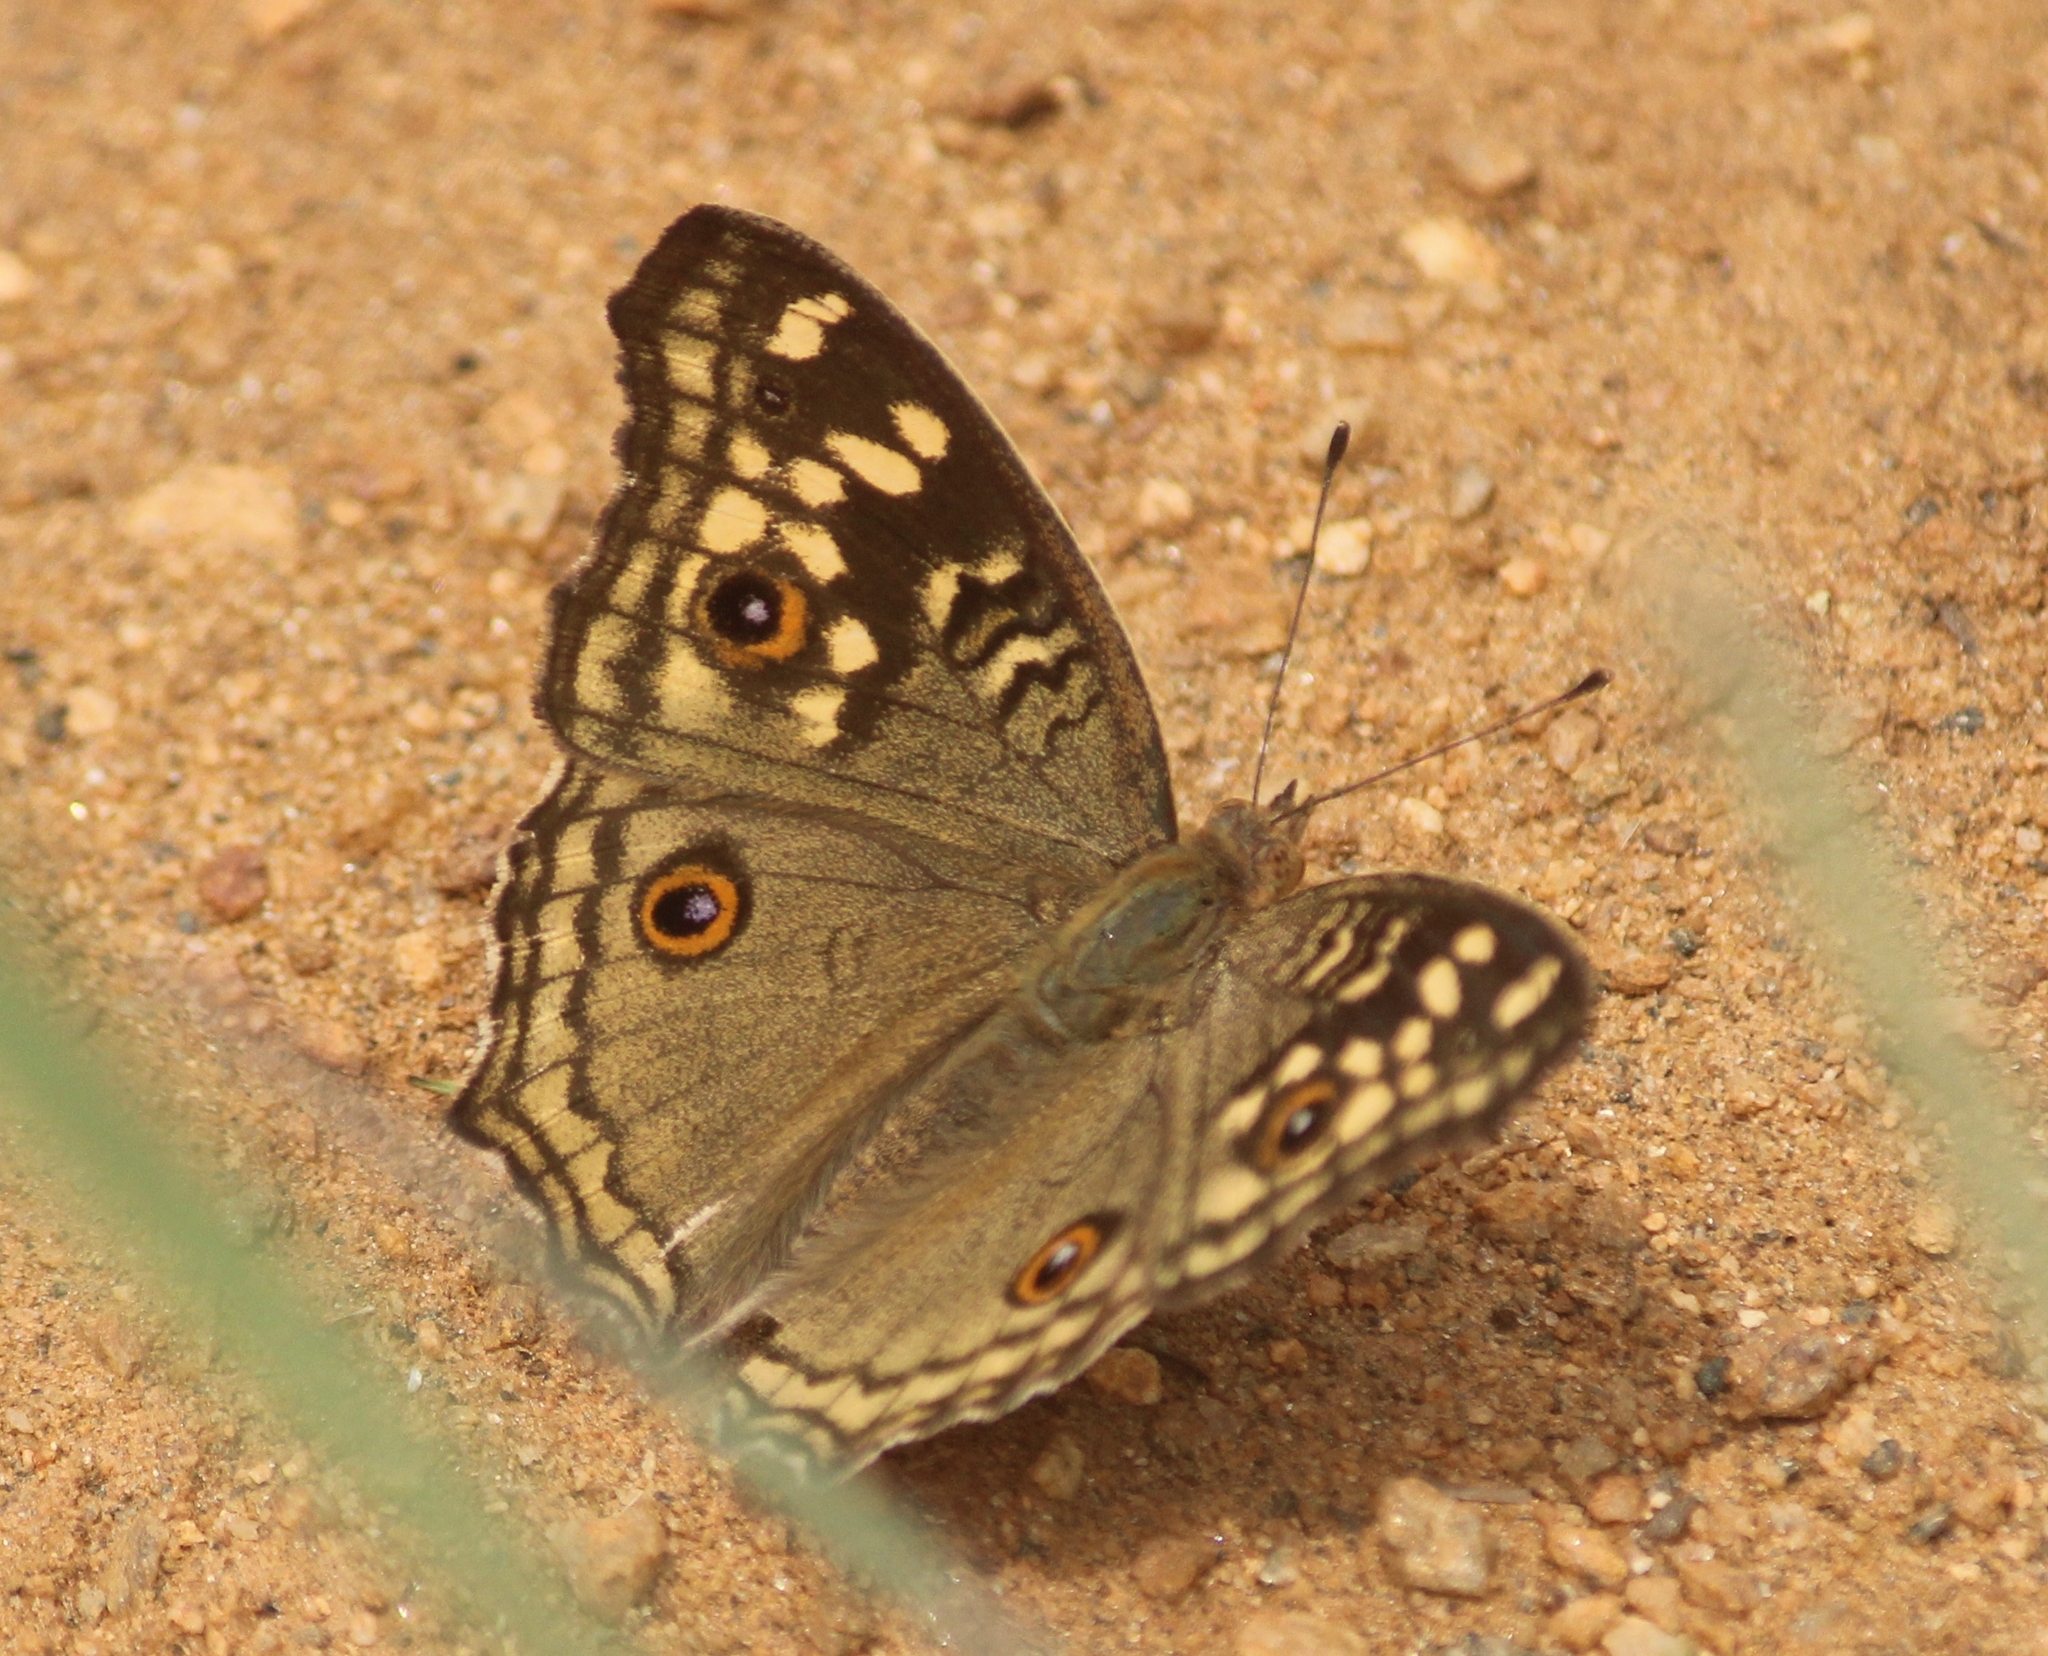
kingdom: Animalia
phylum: Arthropoda
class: Insecta
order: Lepidoptera
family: Nymphalidae
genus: Junonia
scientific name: Junonia lemonias
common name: Lemon pansy
